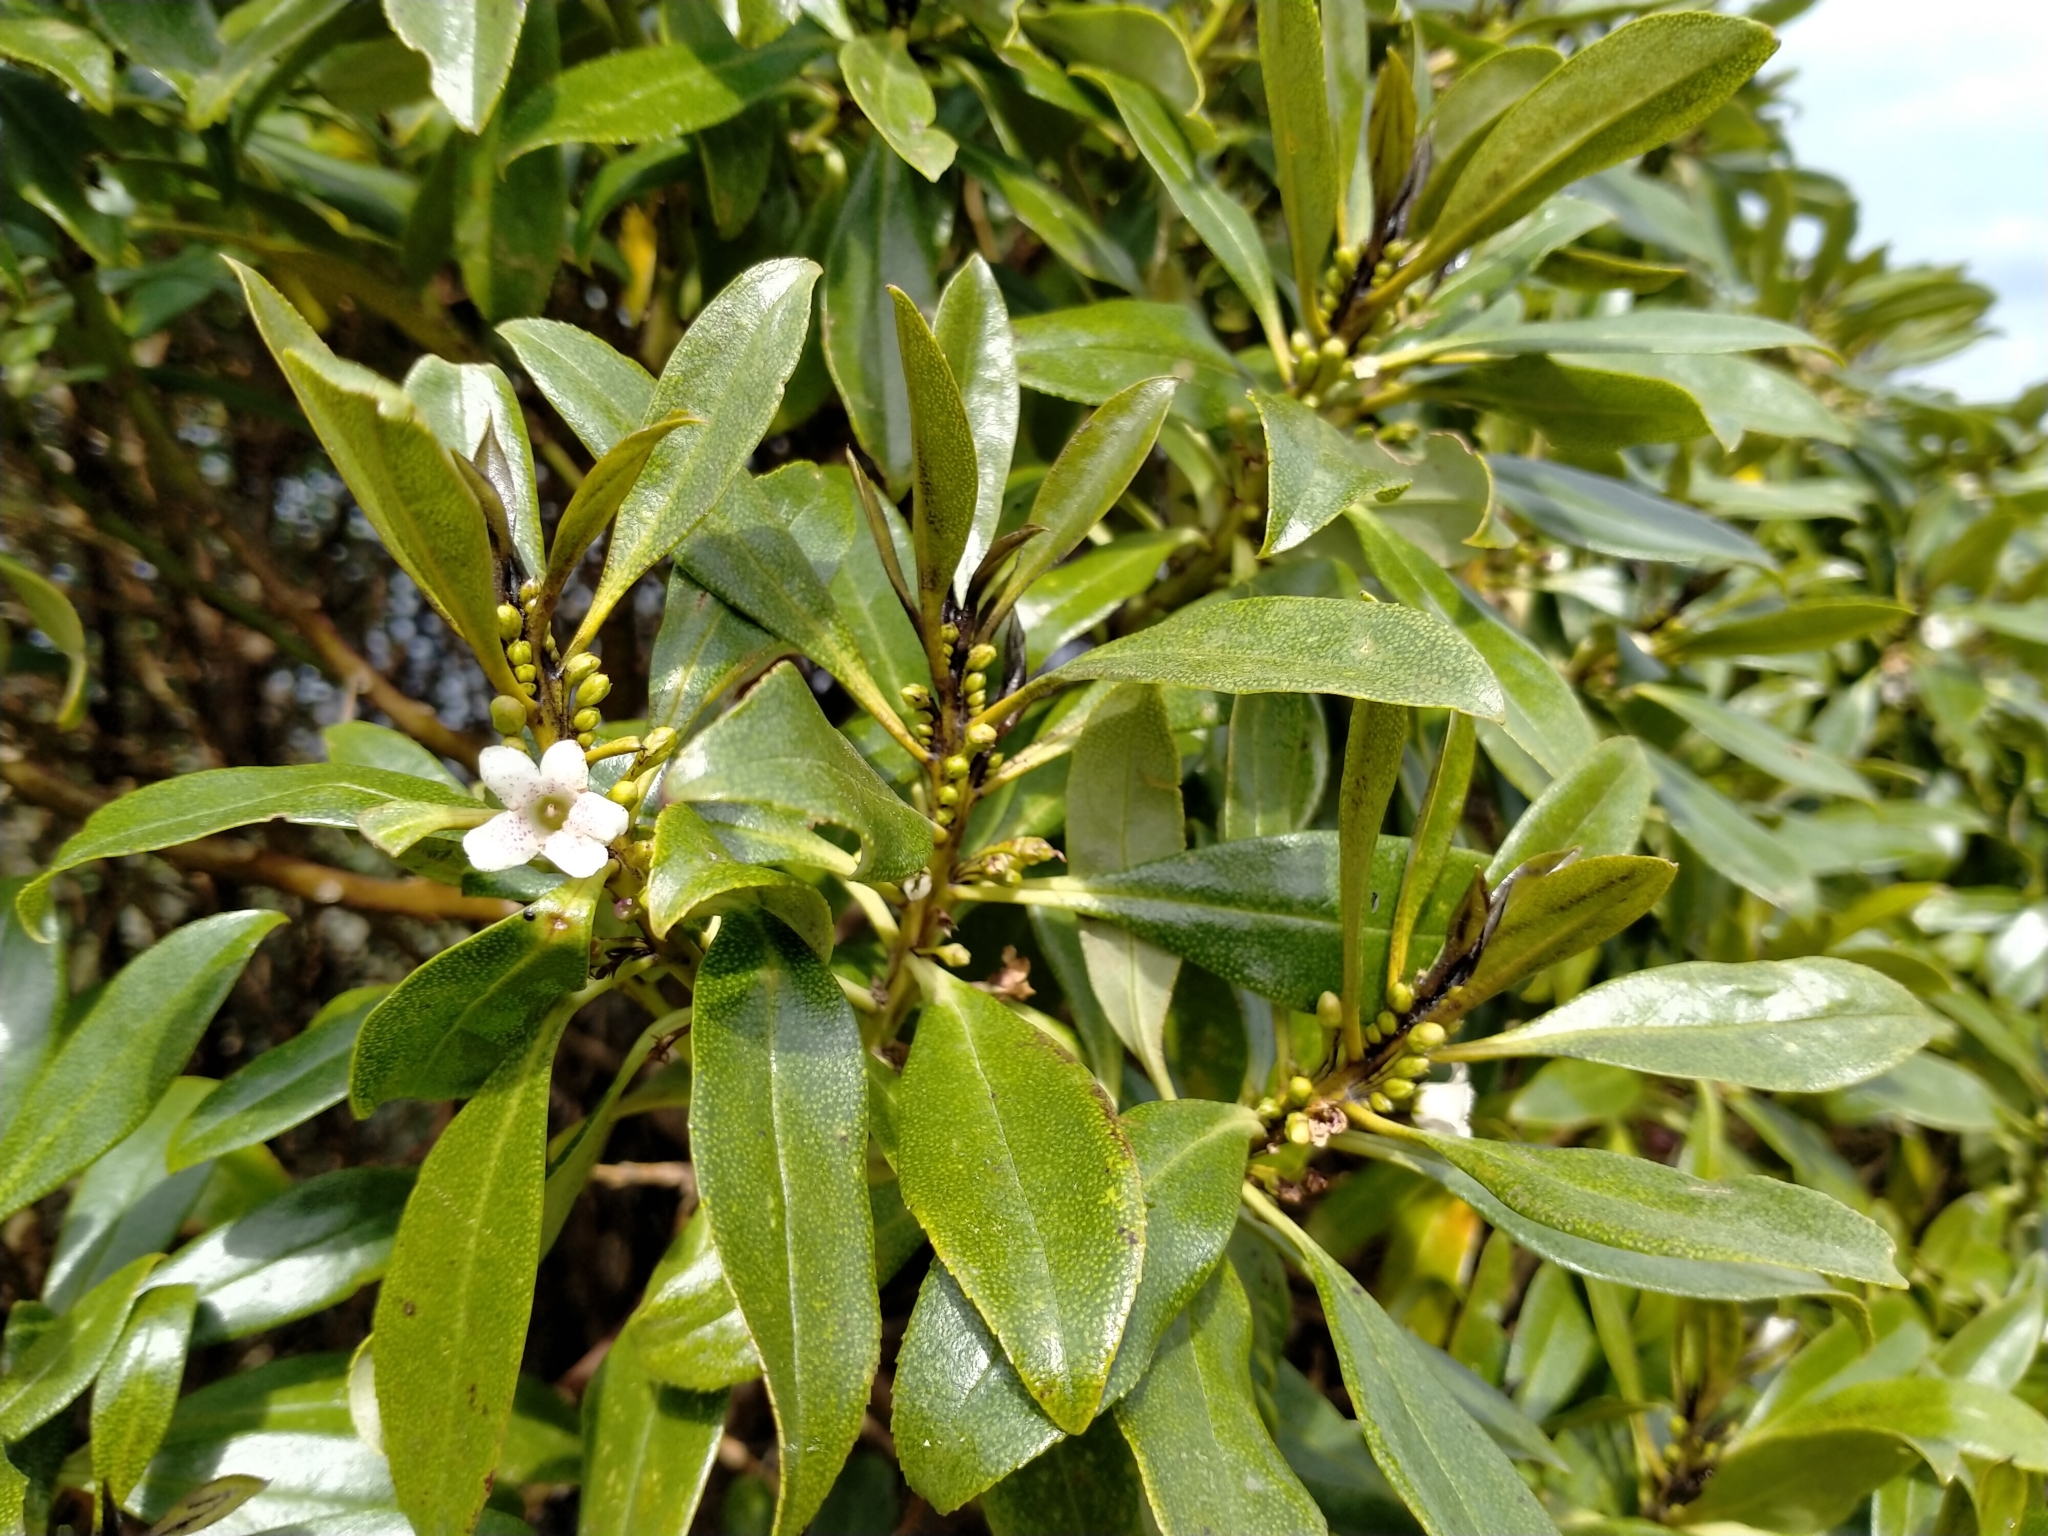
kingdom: Plantae
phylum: Tracheophyta
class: Magnoliopsida
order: Lamiales
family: Scrophulariaceae
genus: Myoporum
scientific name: Myoporum laetum
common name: Ngaio tree
